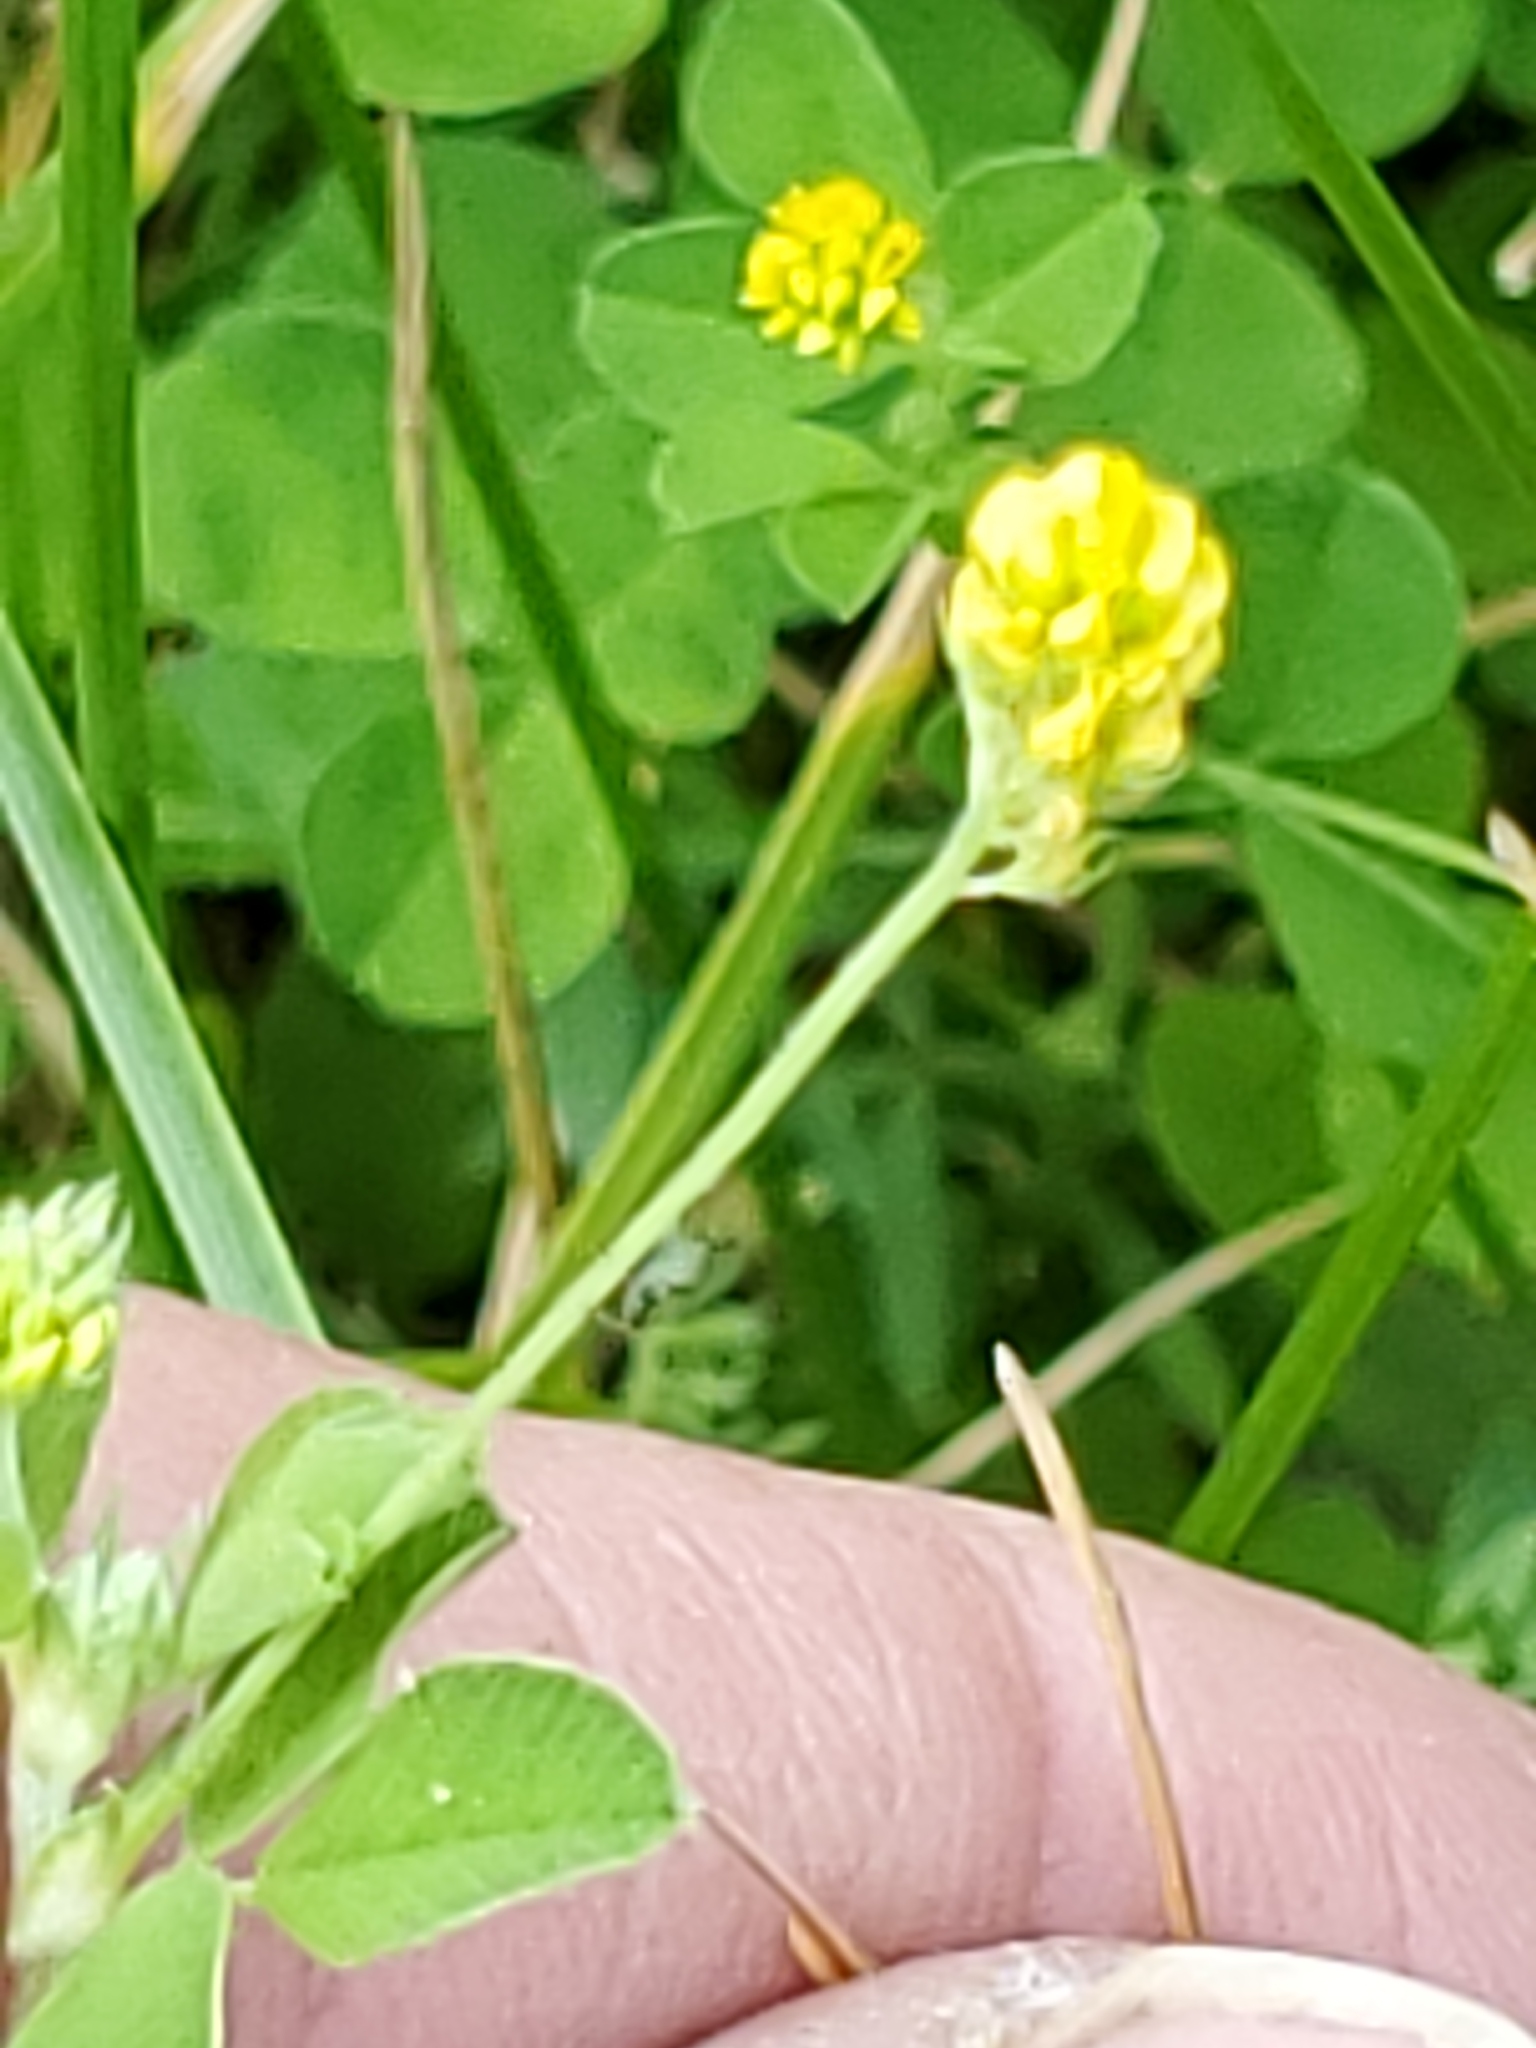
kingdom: Plantae
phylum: Tracheophyta
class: Magnoliopsida
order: Fabales
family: Fabaceae
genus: Medicago
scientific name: Medicago lupulina
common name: Black medick
